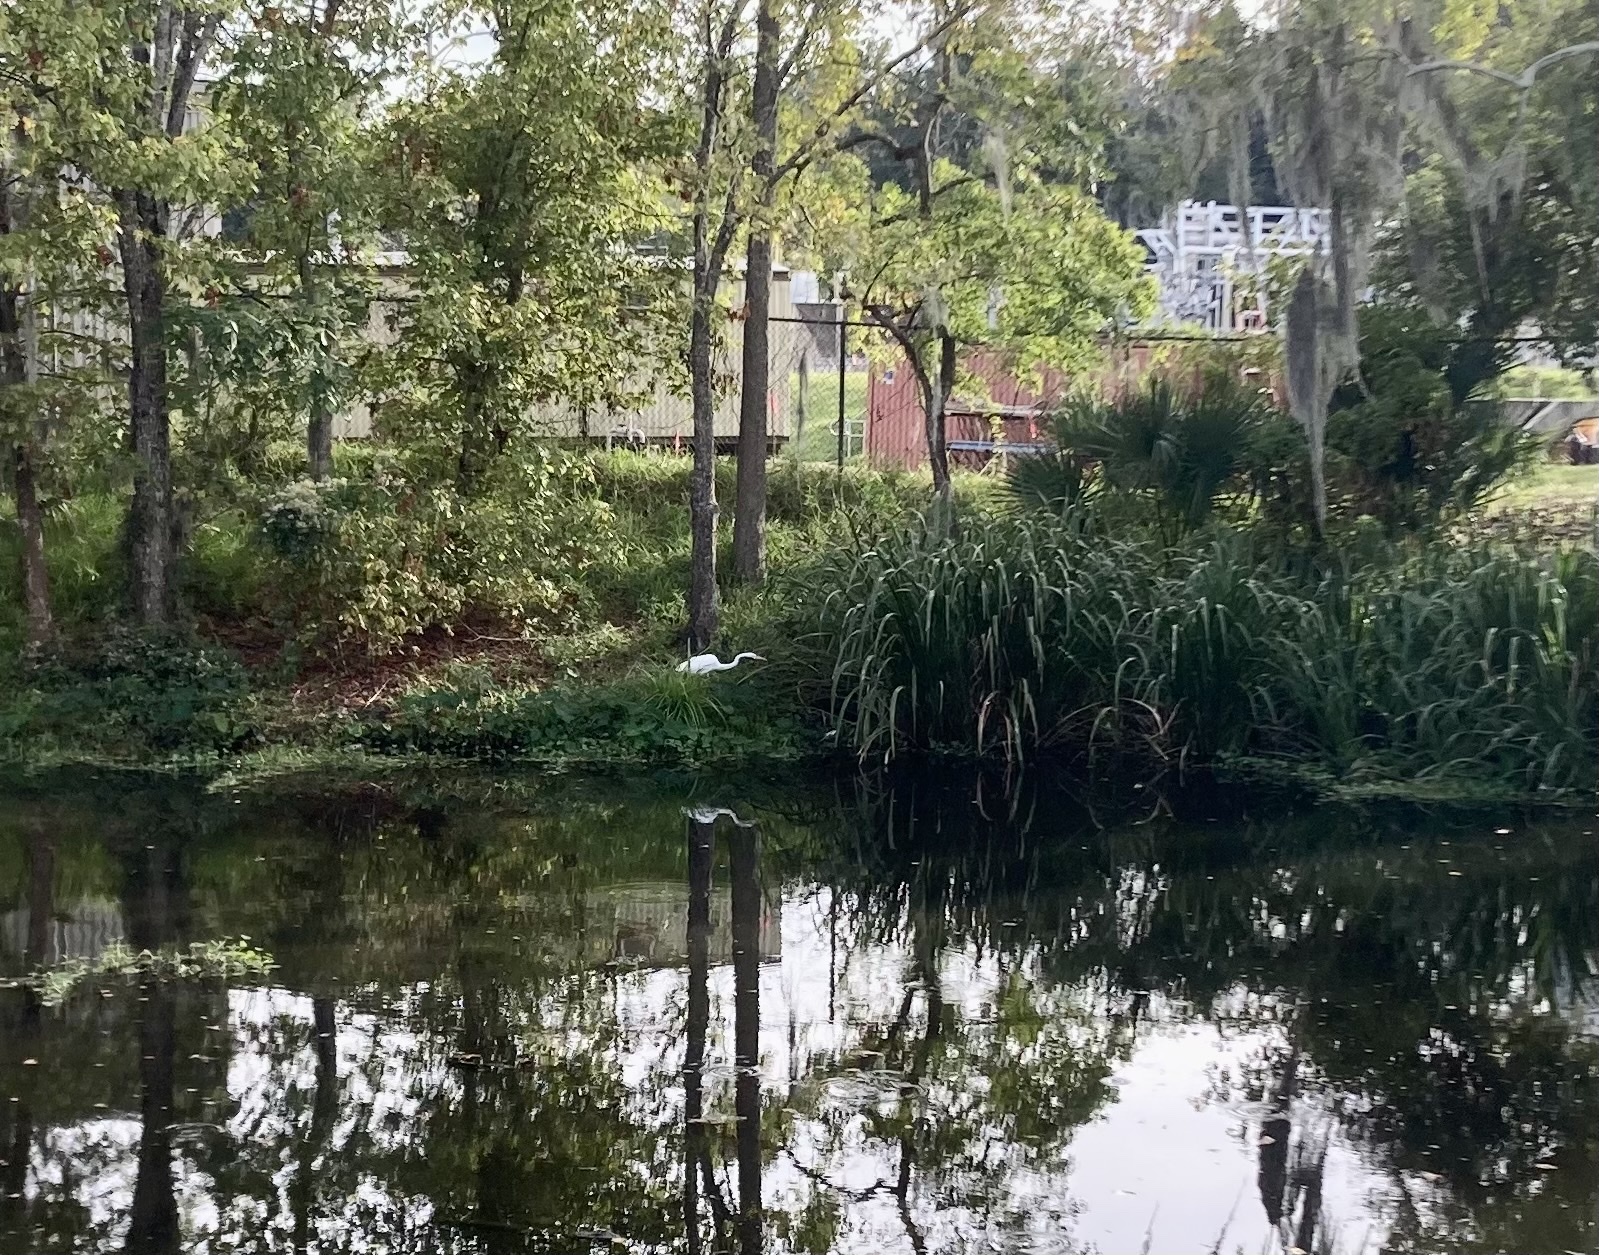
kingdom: Animalia
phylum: Chordata
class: Aves
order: Pelecaniformes
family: Ardeidae
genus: Ardea
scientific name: Ardea alba
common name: Great egret
